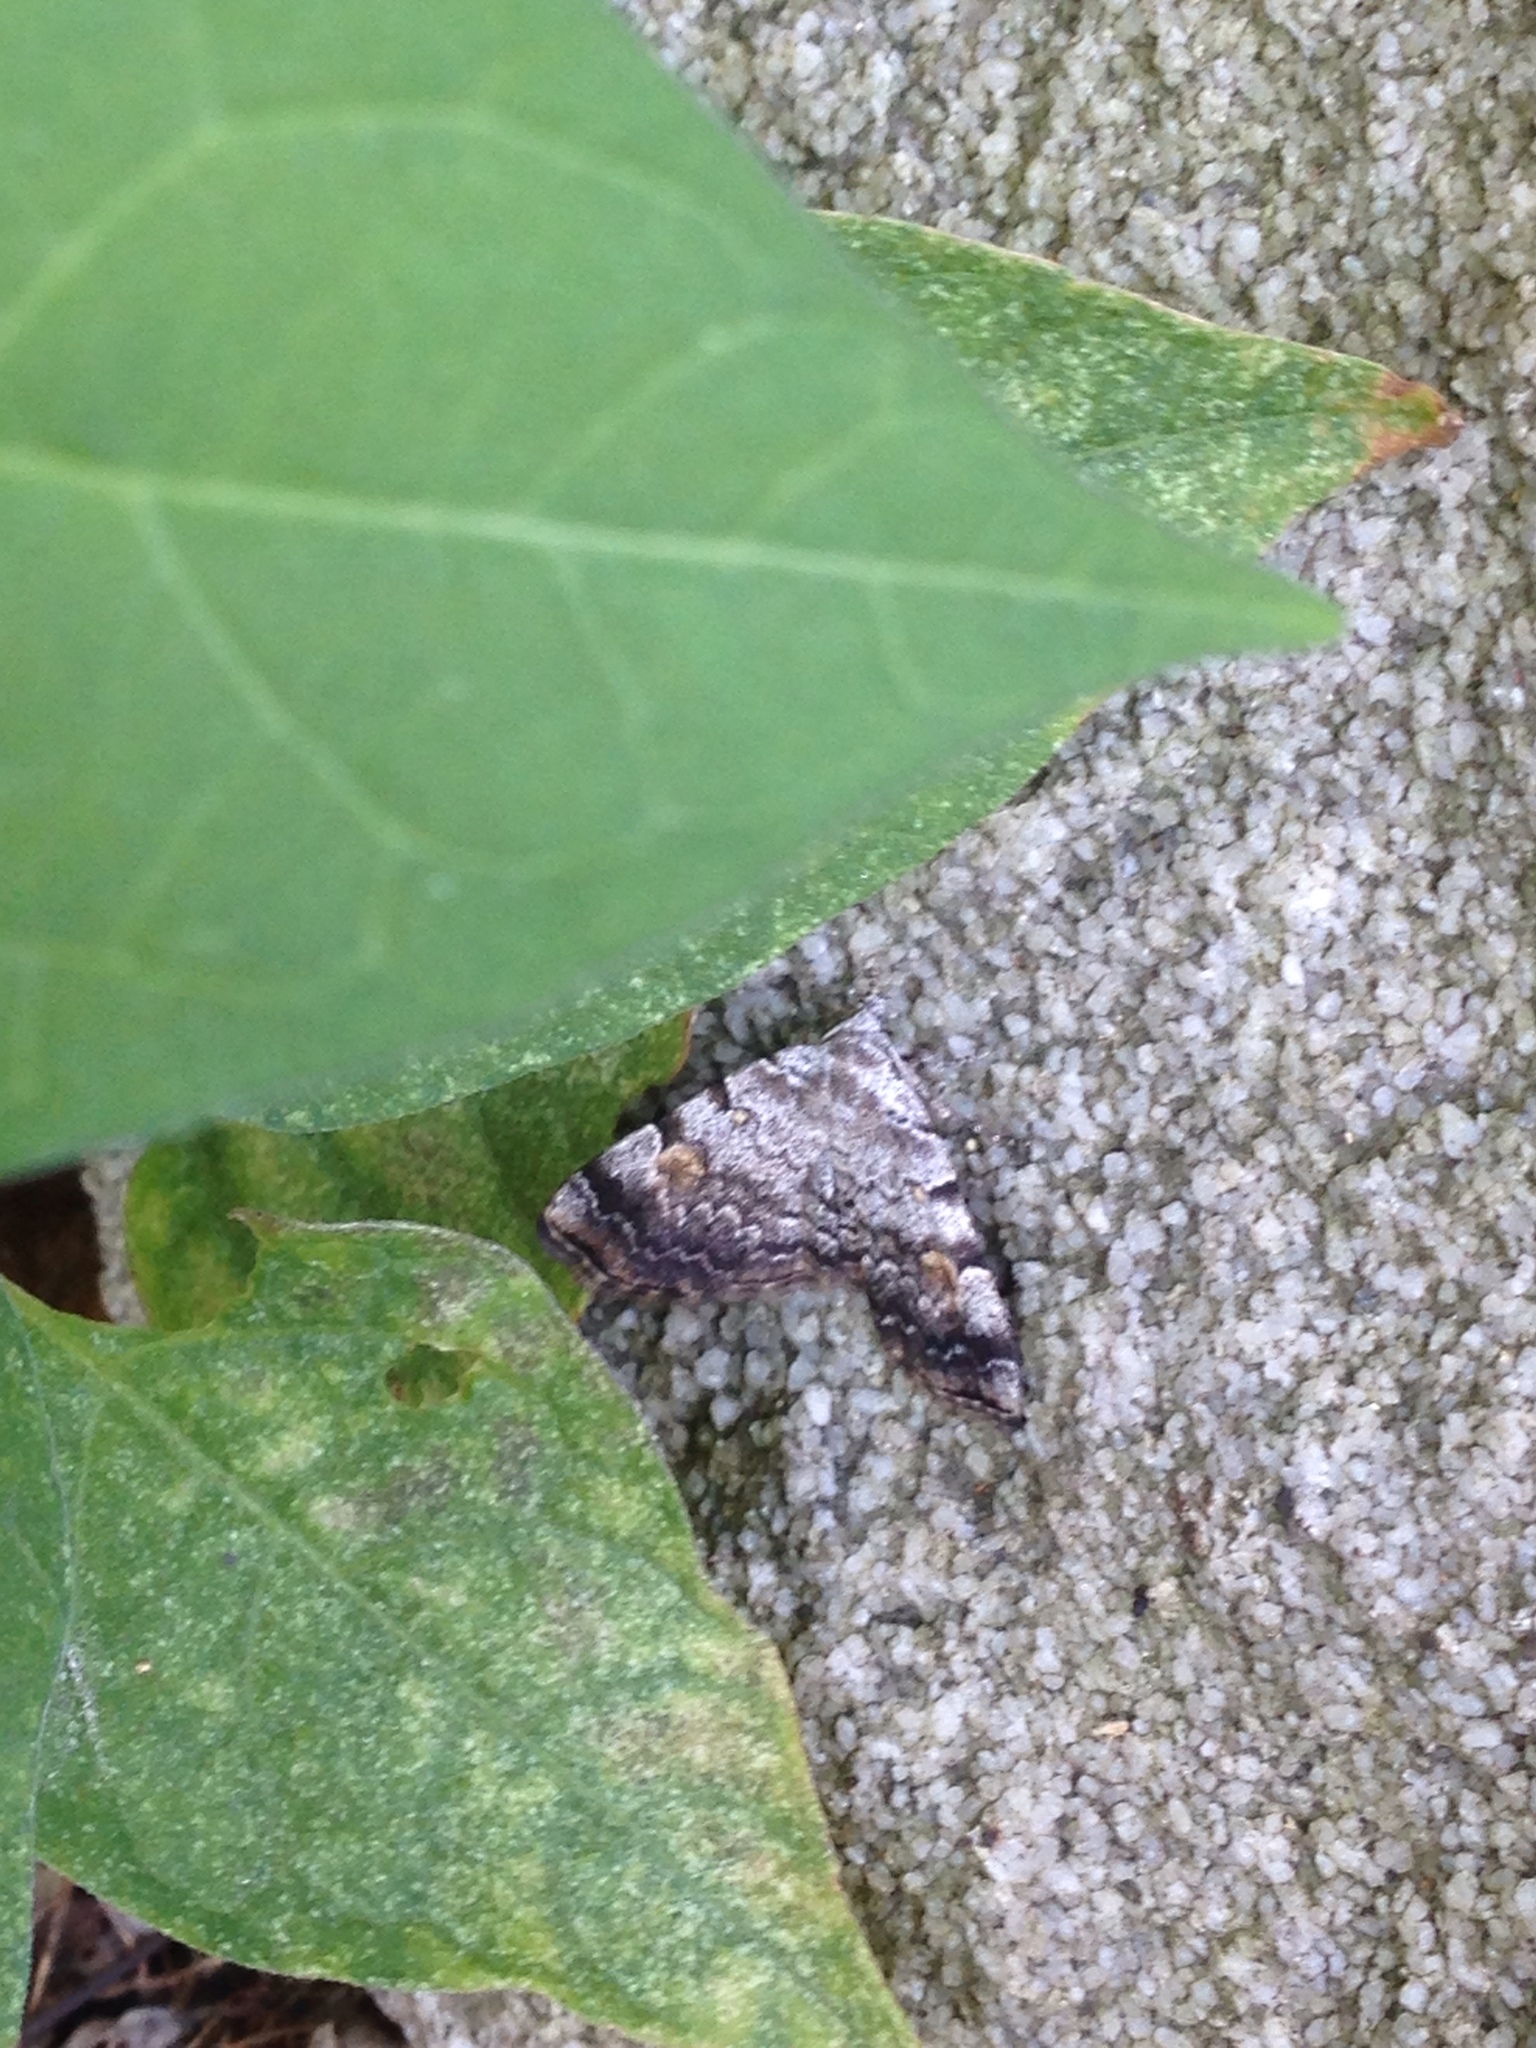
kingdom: Animalia
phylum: Arthropoda
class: Insecta
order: Lepidoptera
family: Erebidae
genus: Idia
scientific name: Idia americalis
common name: American idia moth
